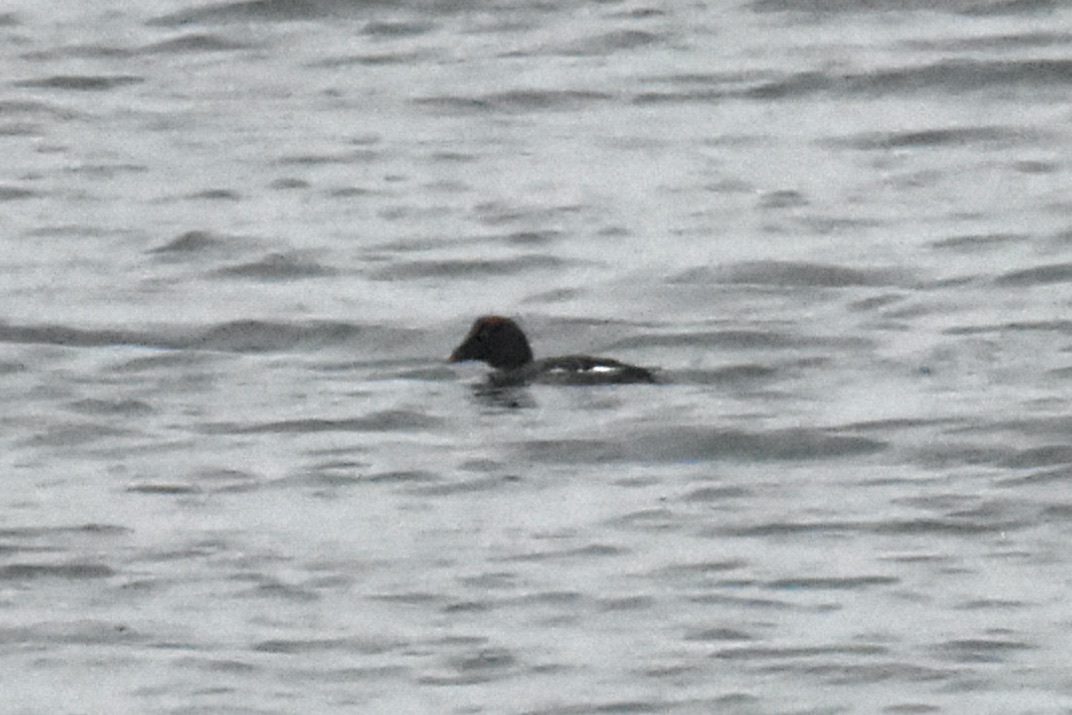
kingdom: Animalia
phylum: Chordata
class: Aves
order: Anseriformes
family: Anatidae
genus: Bucephala
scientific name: Bucephala clangula
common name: Common goldeneye
